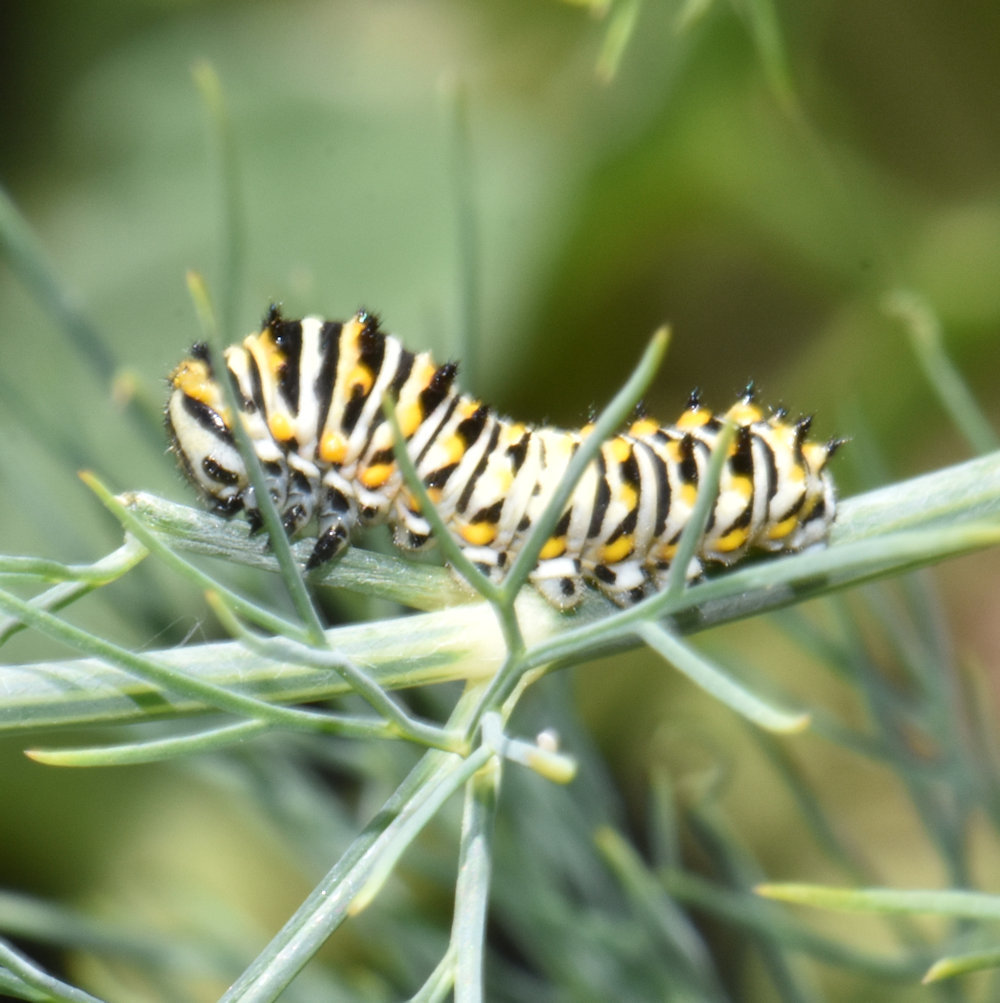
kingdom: Animalia
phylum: Arthropoda
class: Insecta
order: Lepidoptera
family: Papilionidae
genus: Papilio
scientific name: Papilio polyxenes
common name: Black swallowtail
